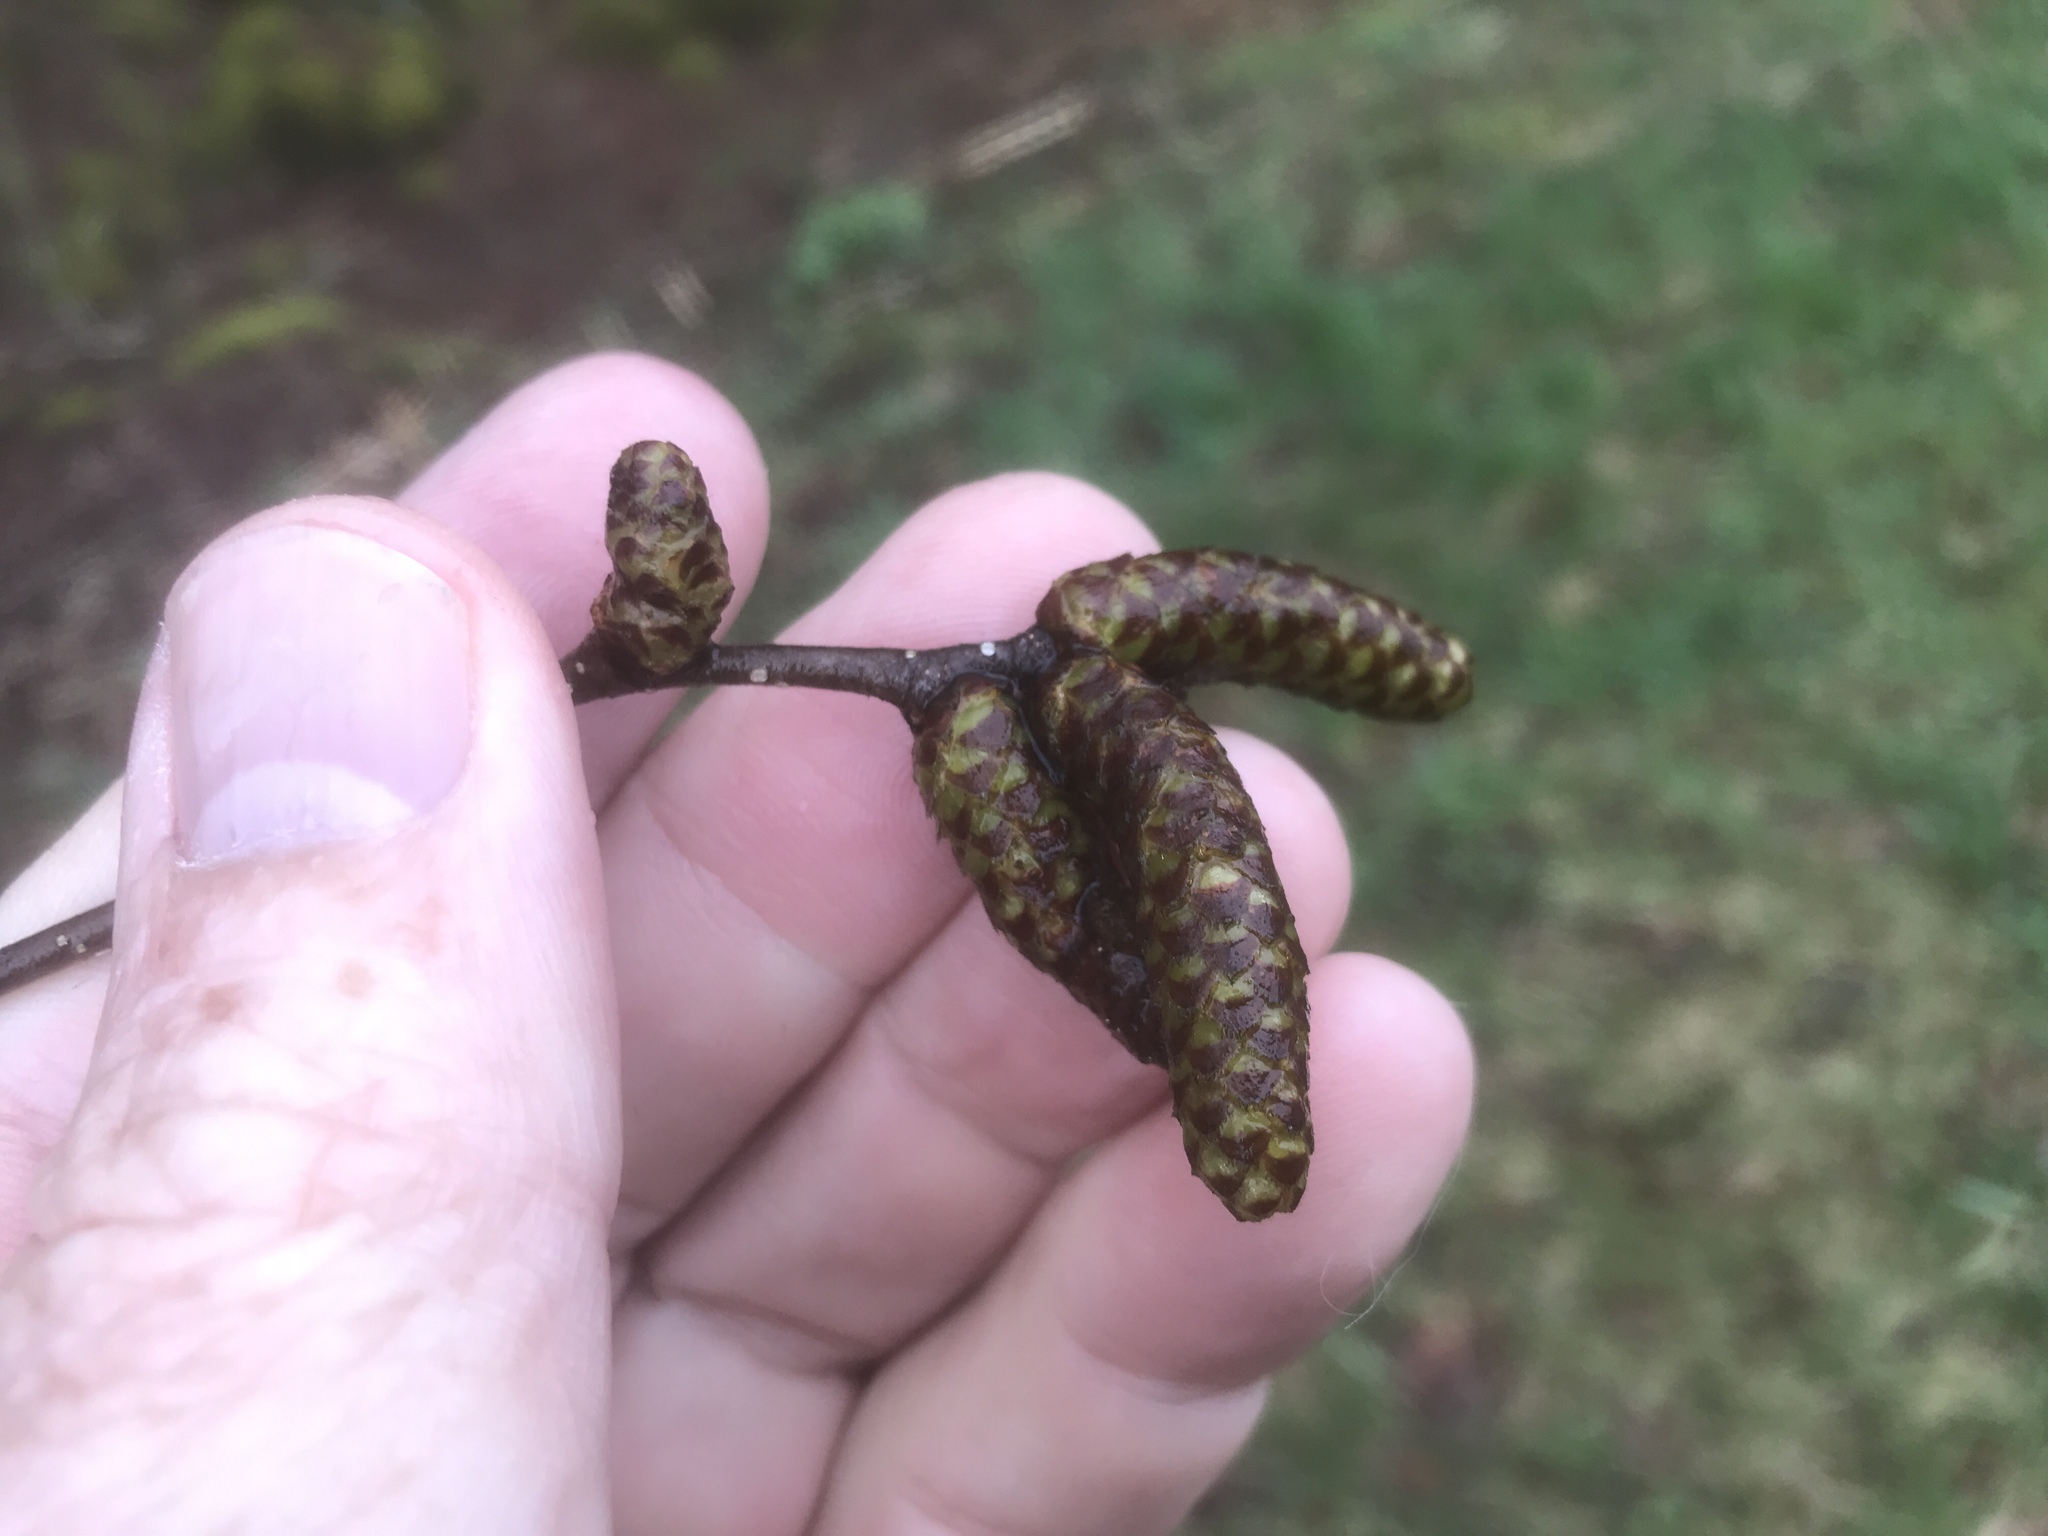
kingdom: Plantae
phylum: Tracheophyta
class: Magnoliopsida
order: Fagales
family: Betulaceae
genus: Betula
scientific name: Betula alleghaniensis
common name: Yellow birch
